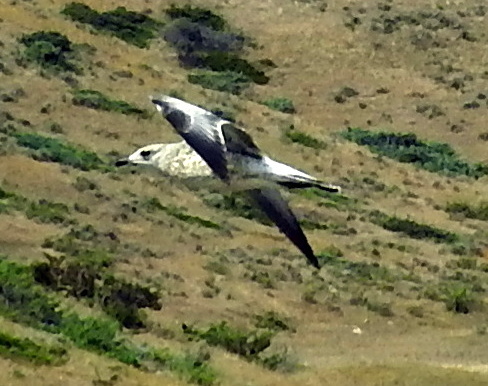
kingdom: Animalia
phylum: Chordata
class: Aves
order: Charadriiformes
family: Laridae
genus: Larus
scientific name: Larus delawarensis
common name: Ring-billed gull
